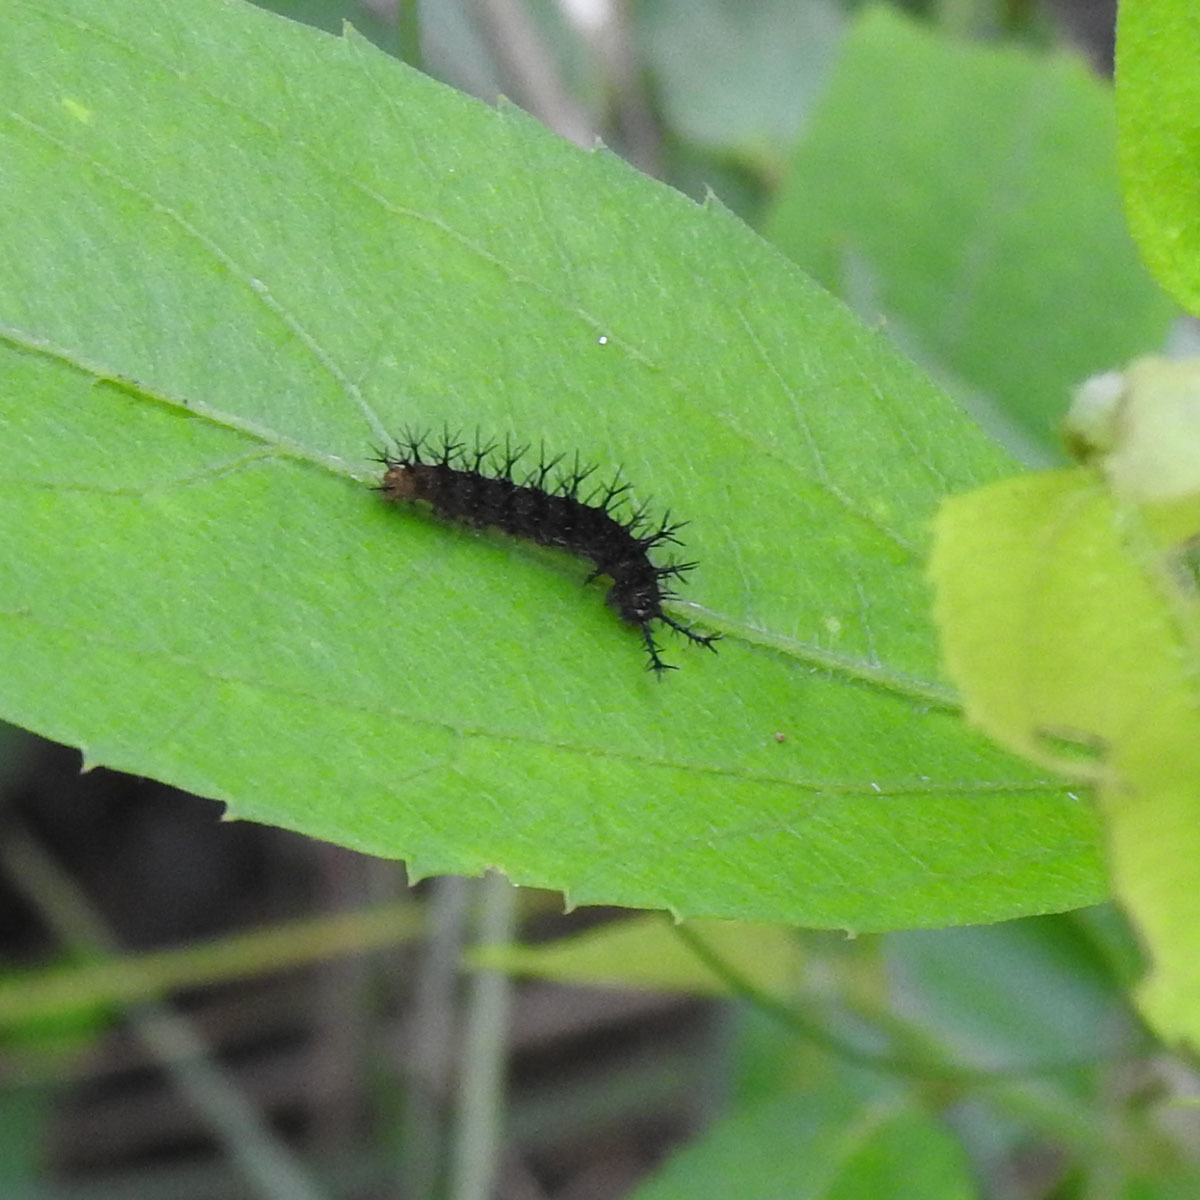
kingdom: Animalia
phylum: Arthropoda
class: Insecta
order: Lepidoptera
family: Nymphalidae
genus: Ariadne
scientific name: Ariadne ariadne
